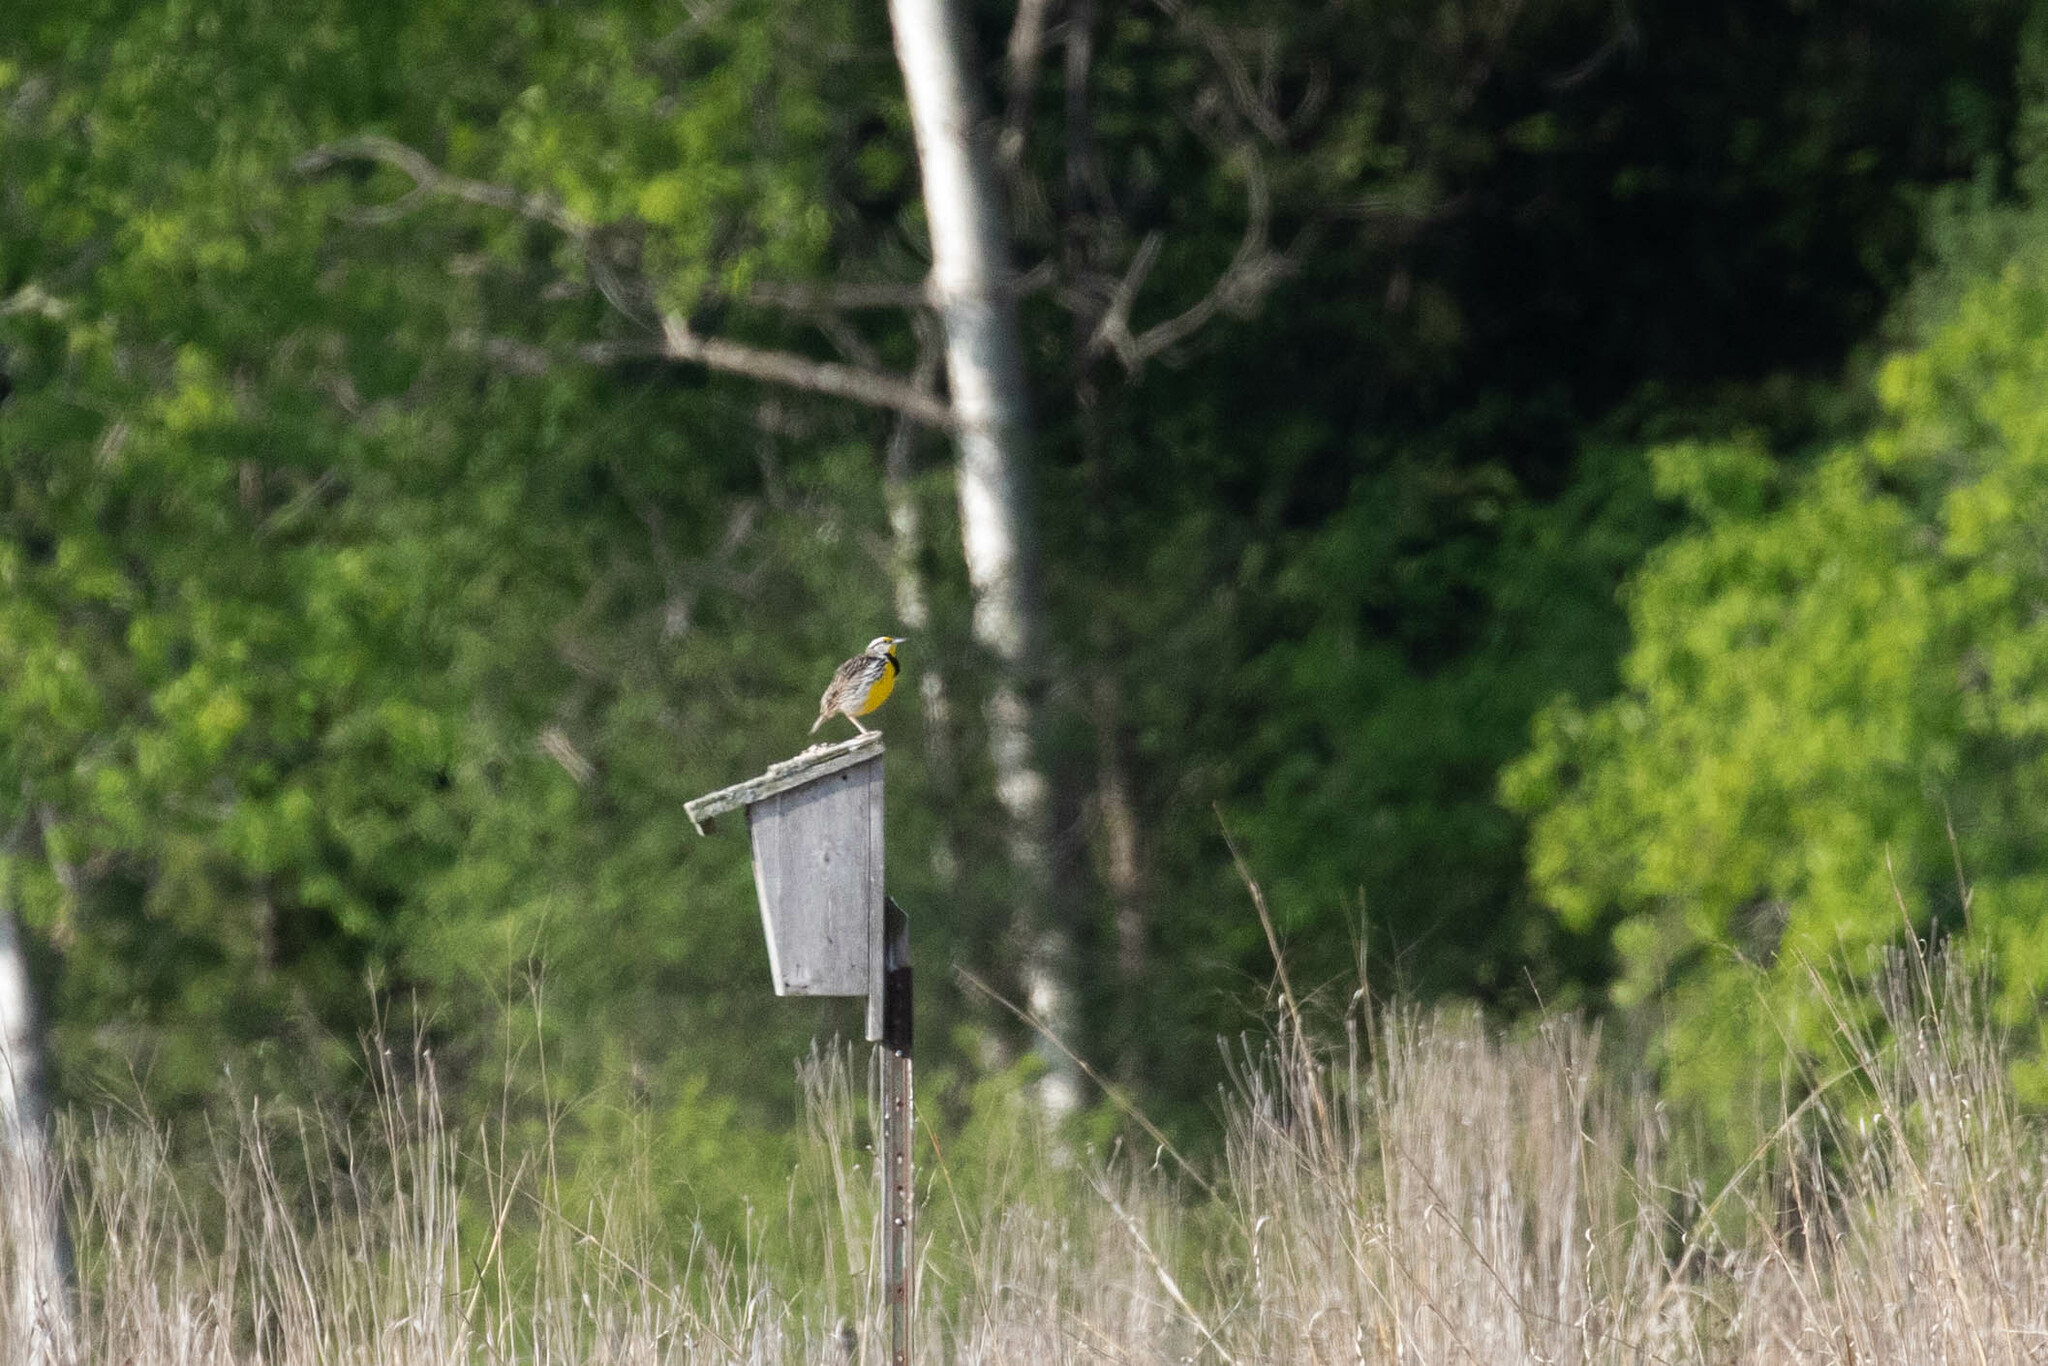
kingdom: Animalia
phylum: Chordata
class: Aves
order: Passeriformes
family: Icteridae
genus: Sturnella
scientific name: Sturnella magna
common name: Eastern meadowlark
